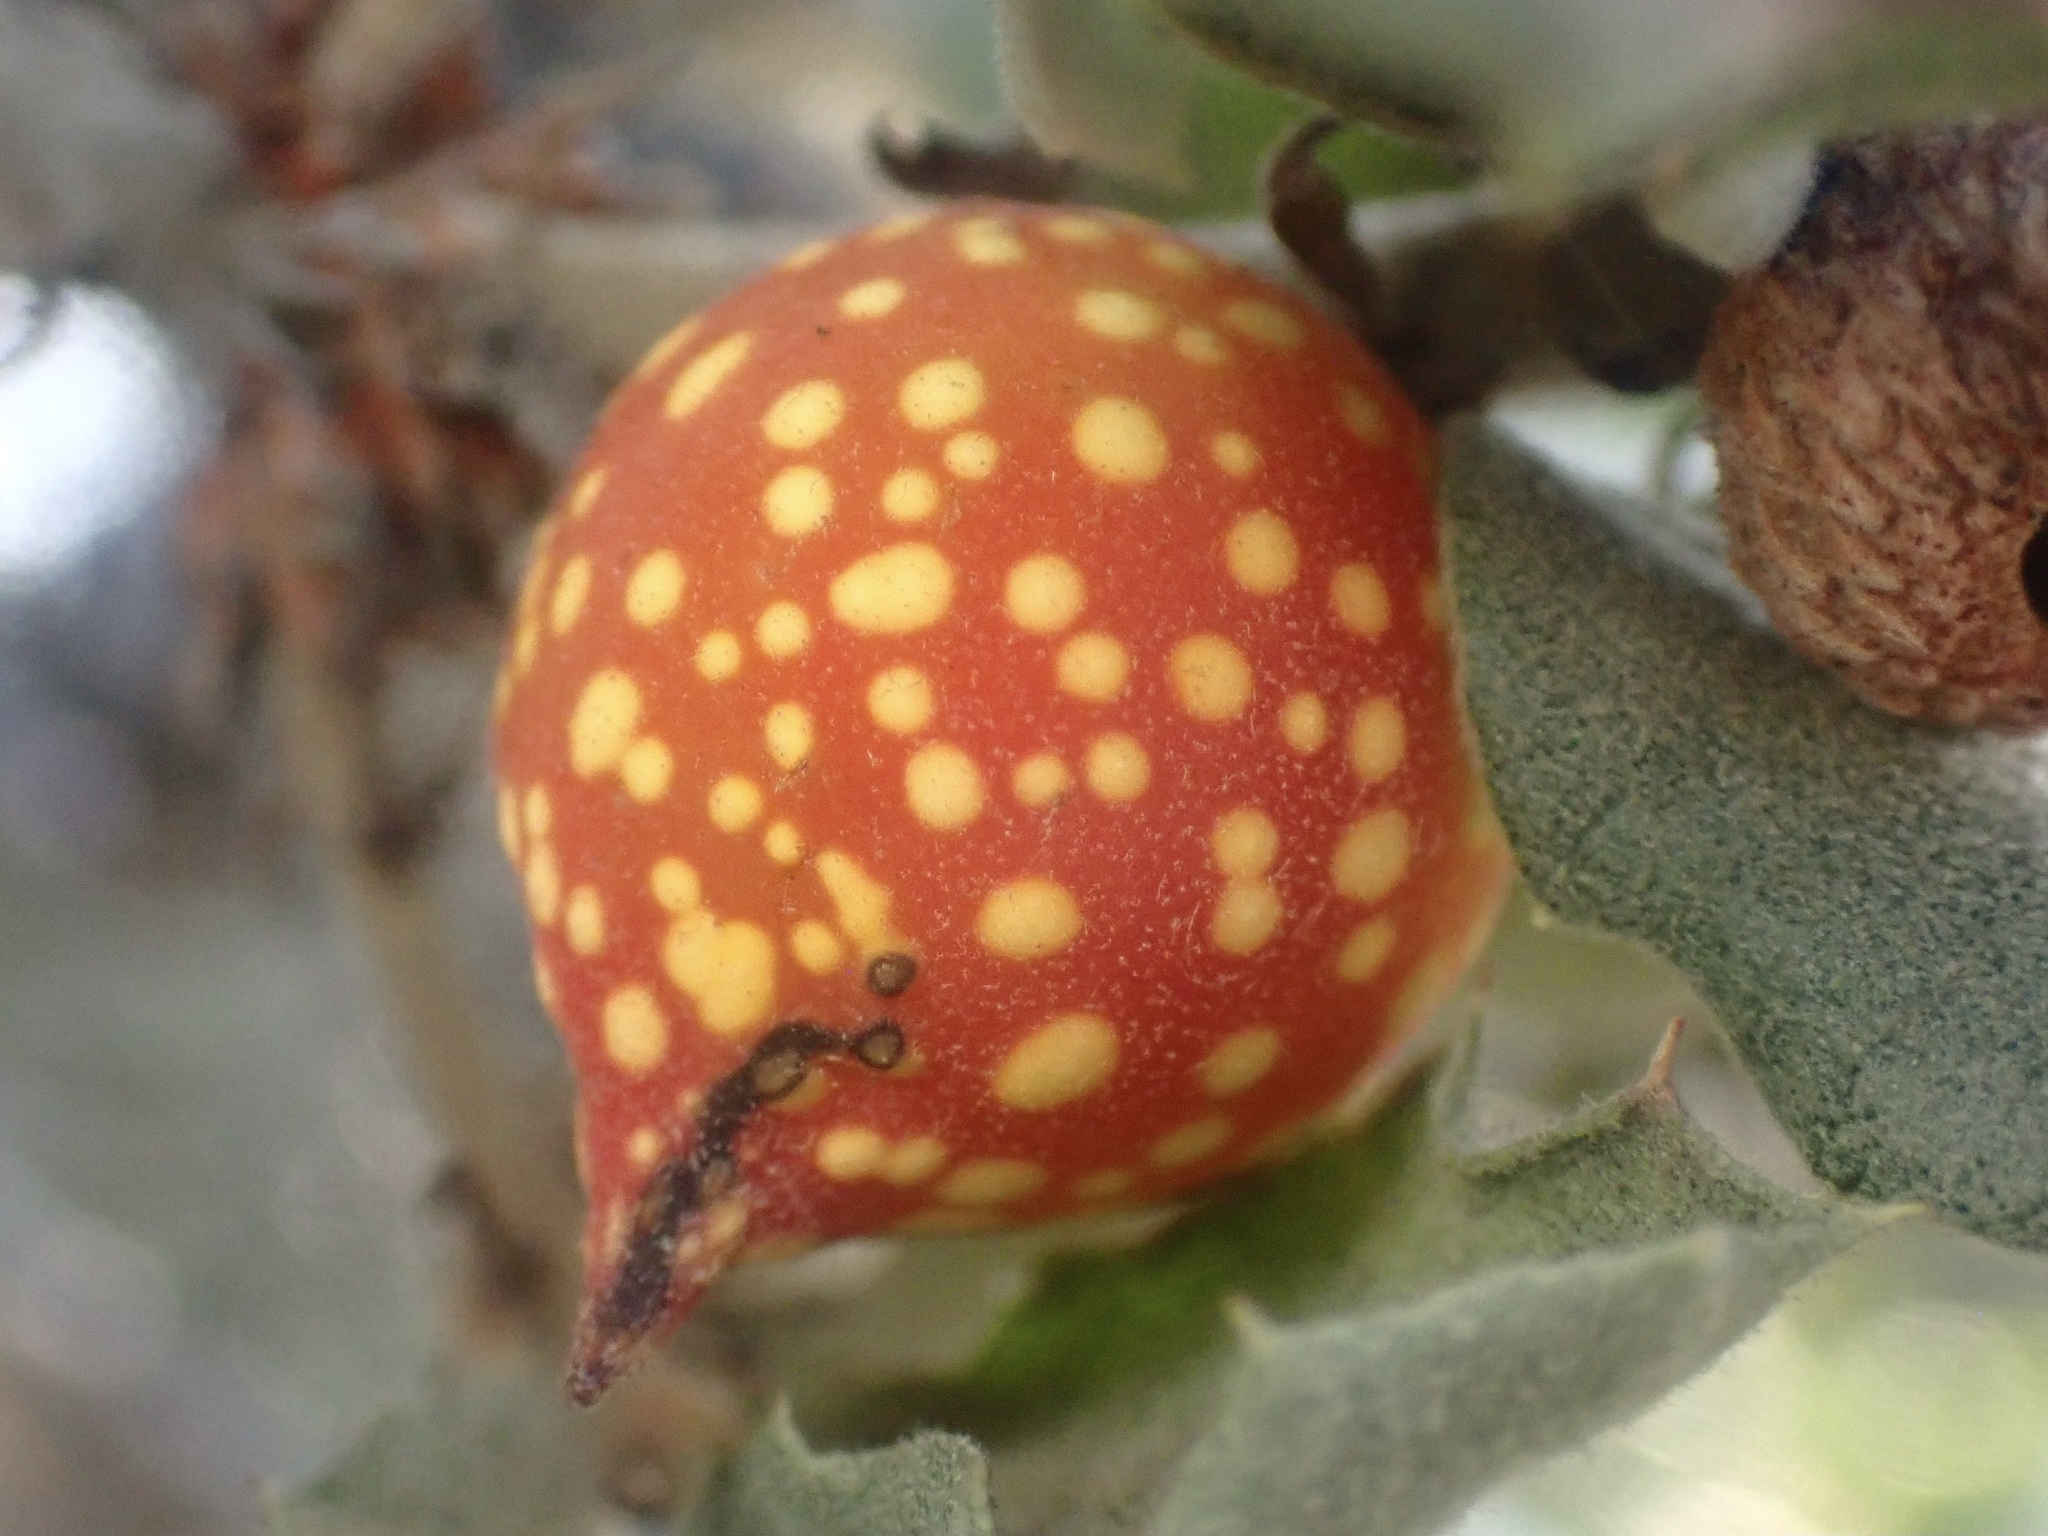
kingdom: Animalia
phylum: Arthropoda
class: Insecta
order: Hymenoptera
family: Cynipidae
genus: Burnettweldia
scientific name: Burnettweldia
